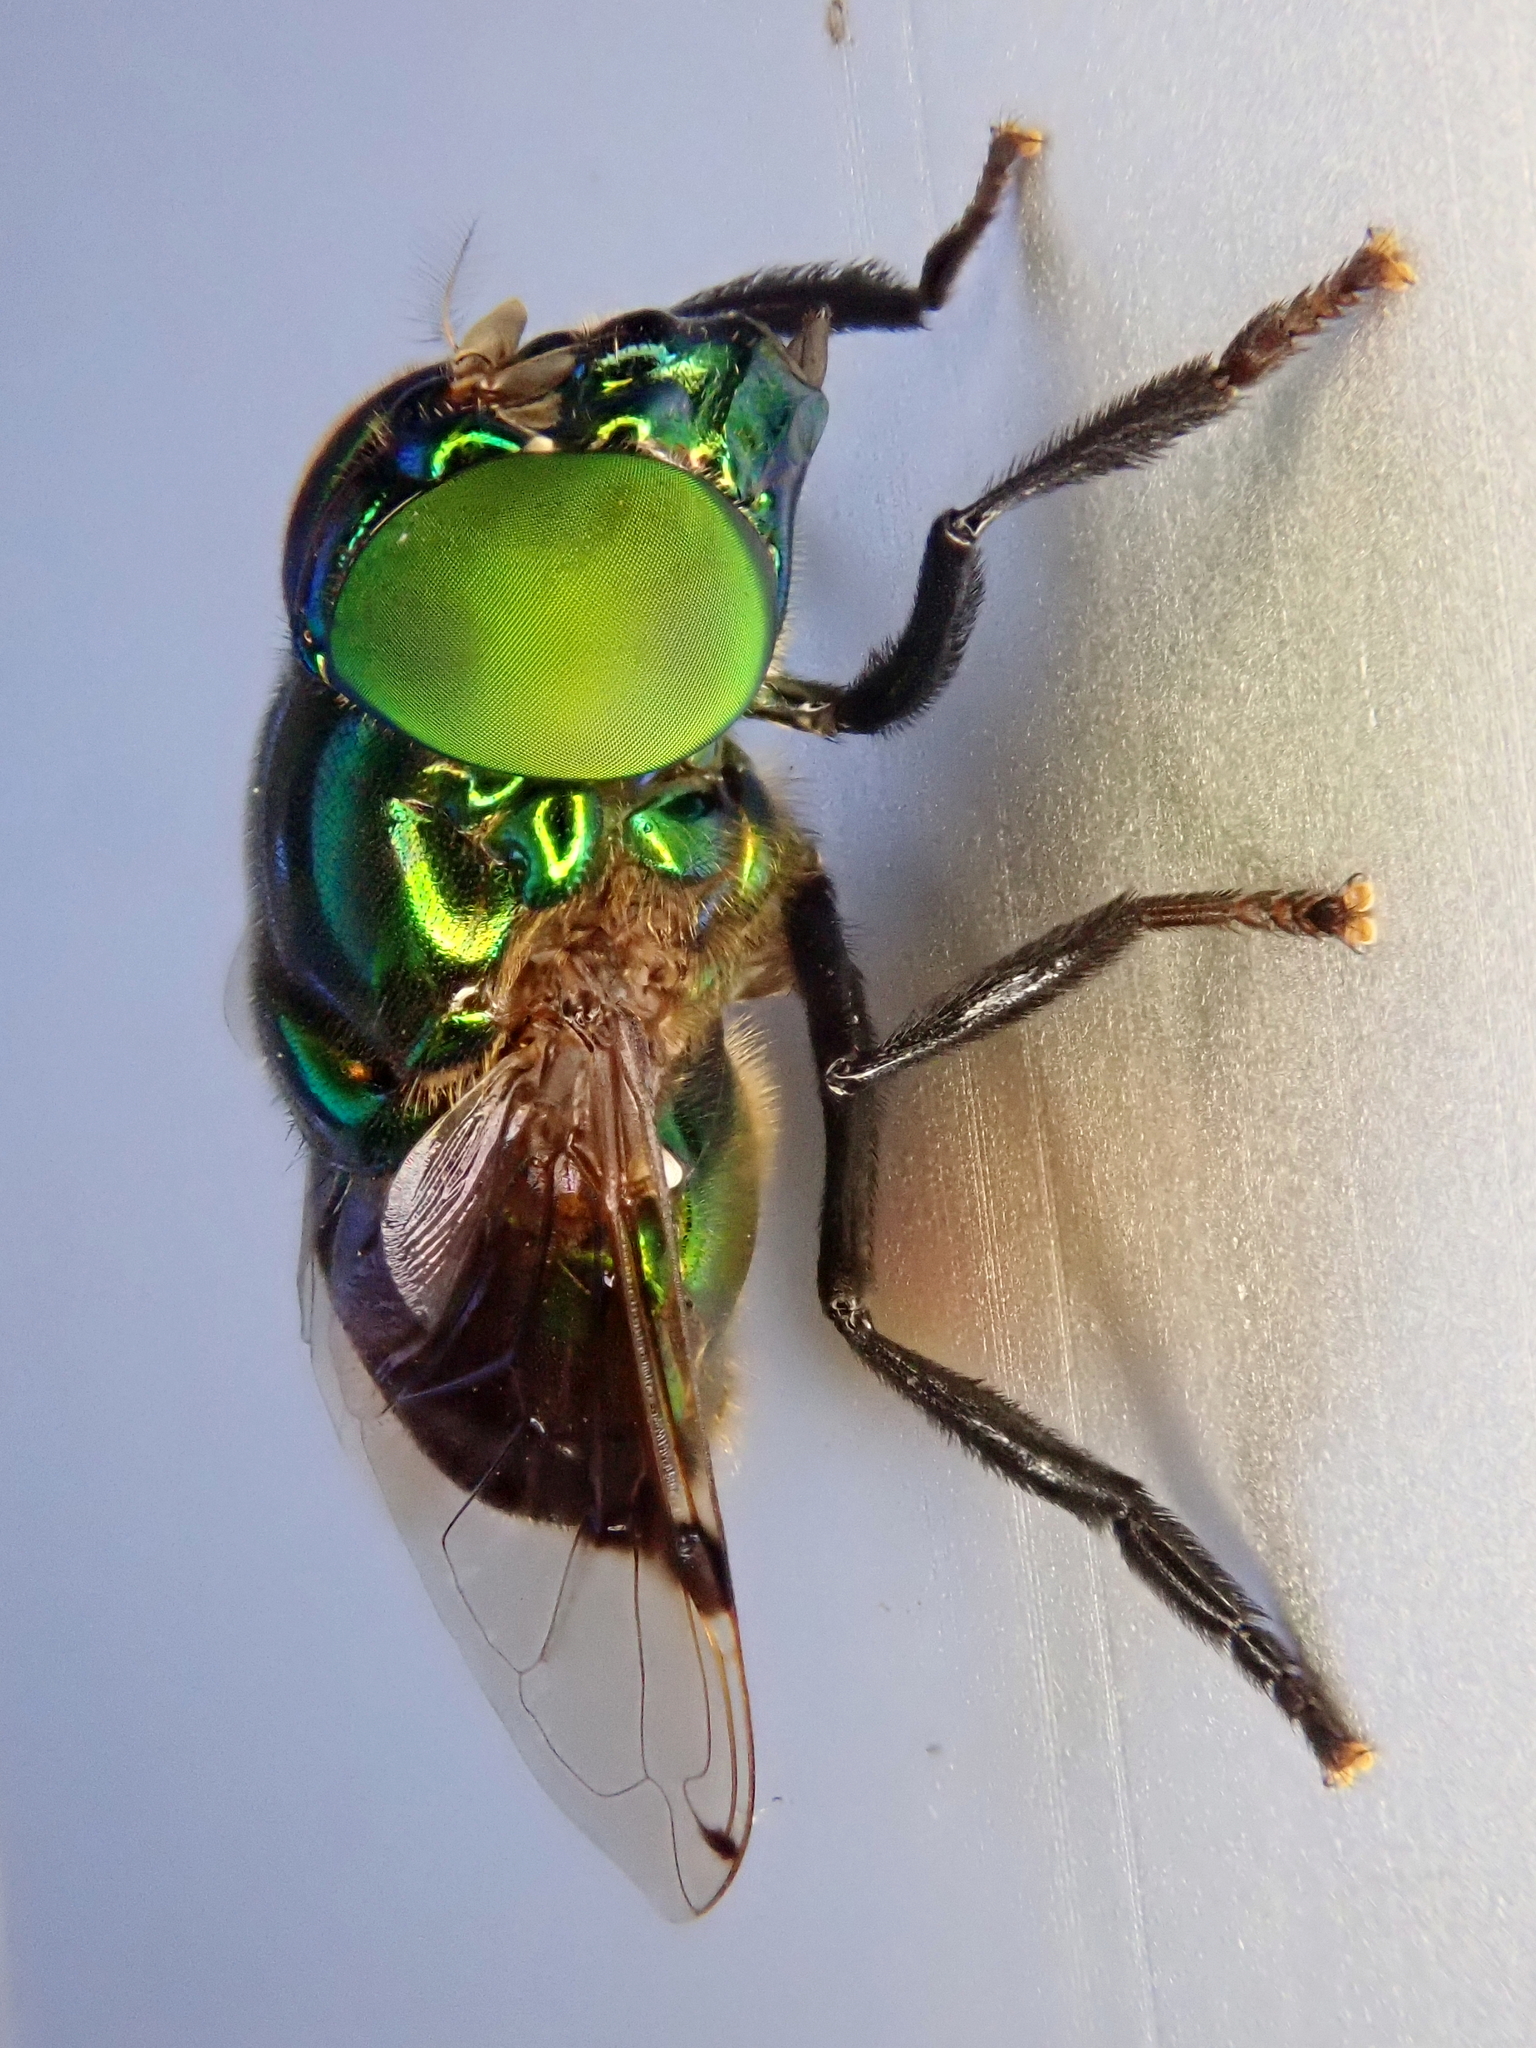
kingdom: Animalia
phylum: Arthropoda
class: Insecta
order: Diptera
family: Syrphidae
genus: Ornidia
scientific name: Ornidia obesa
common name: Syrphid fly
